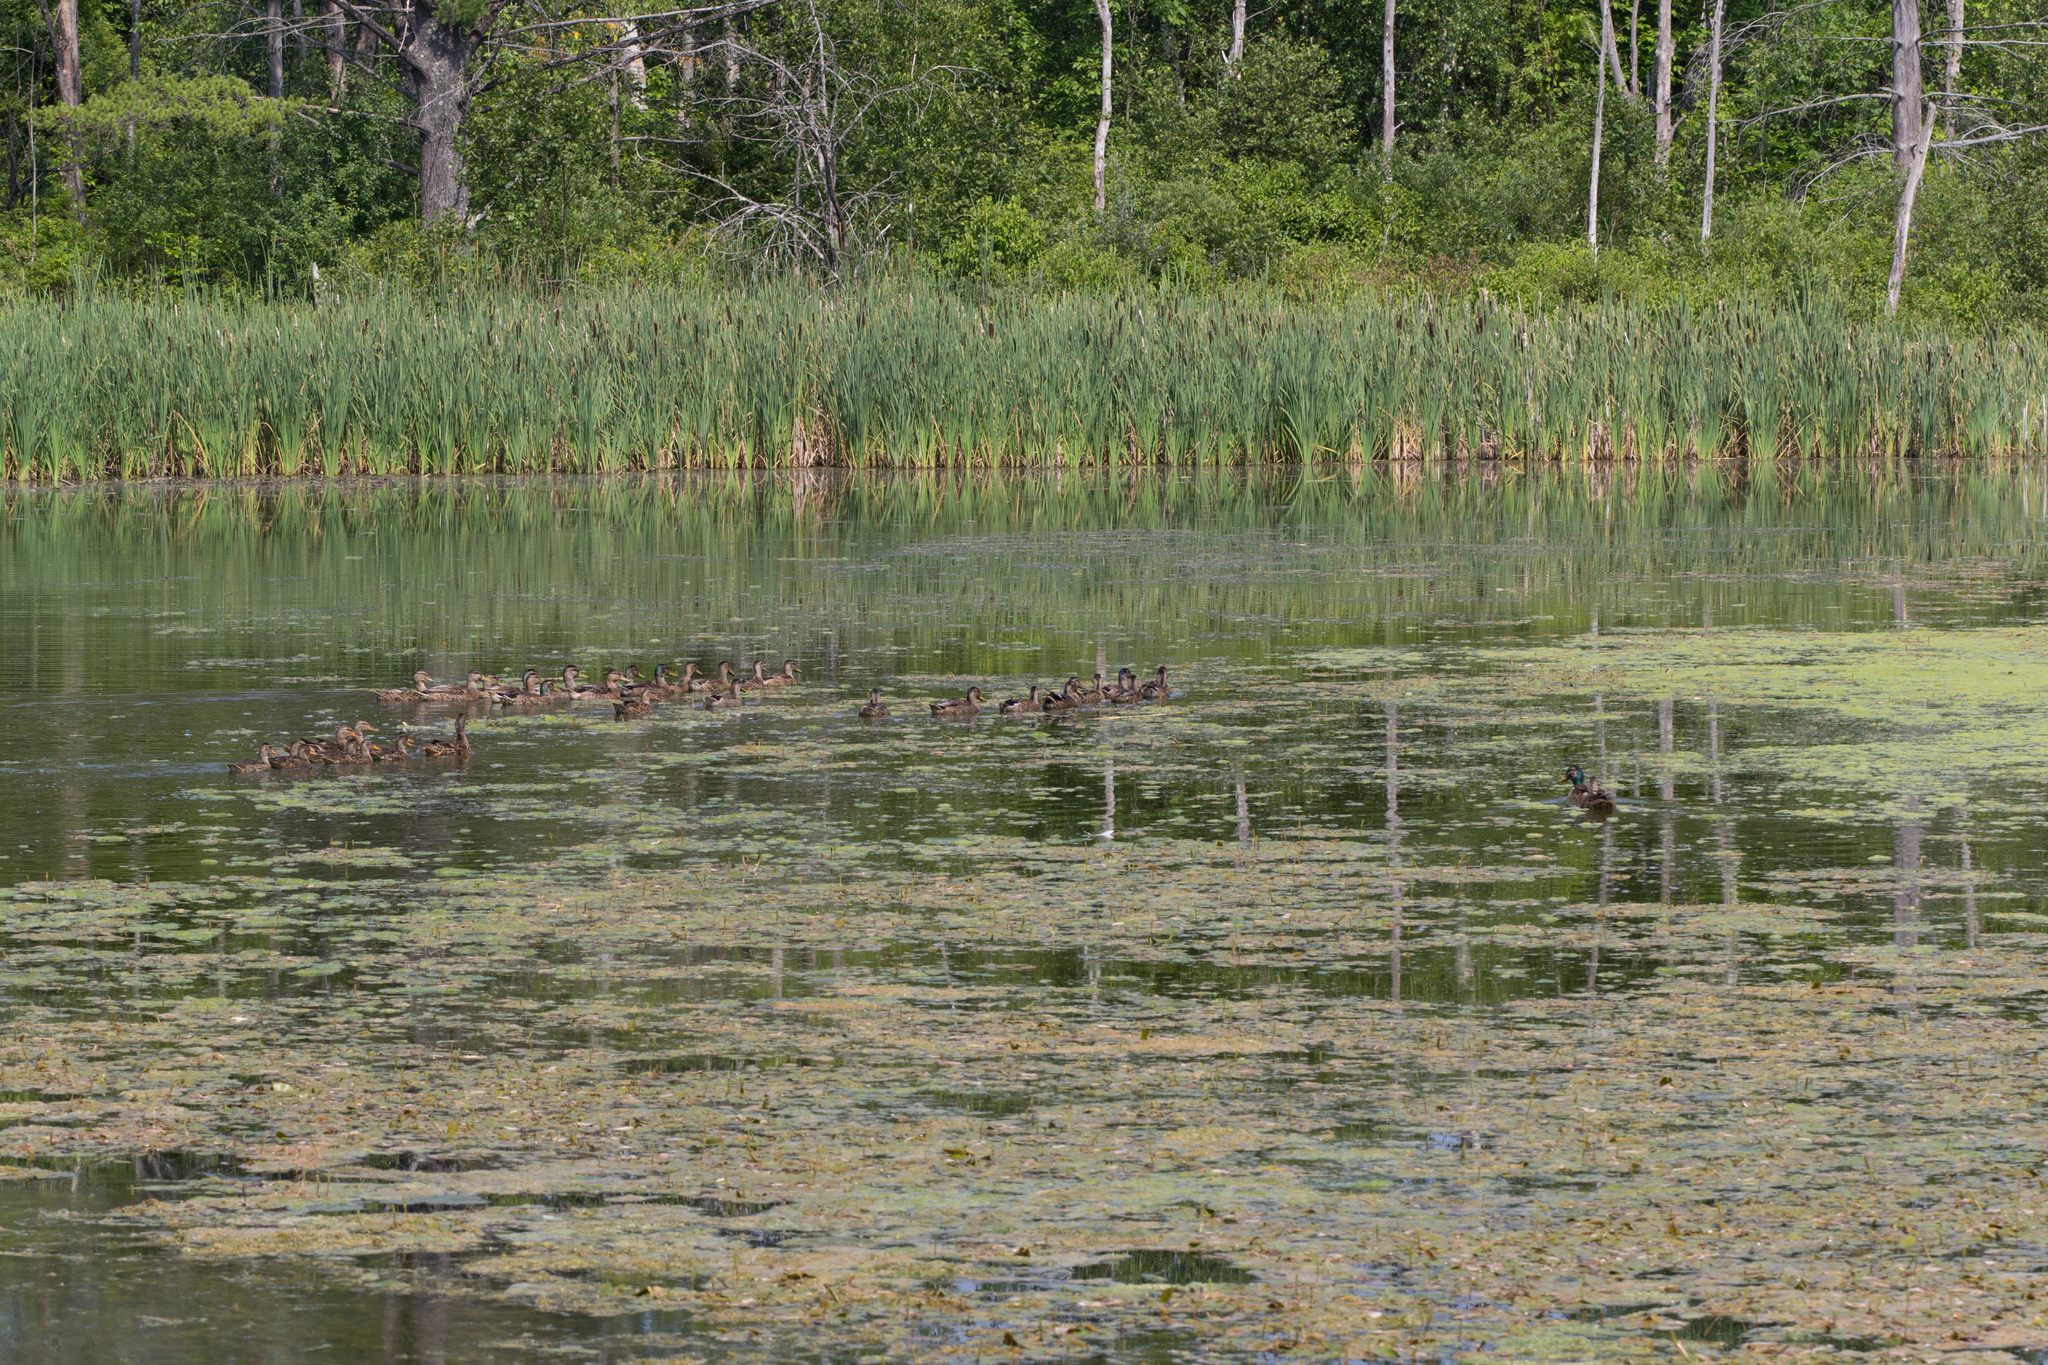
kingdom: Animalia
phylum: Chordata
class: Aves
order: Anseriformes
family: Anatidae
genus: Anas
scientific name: Anas platyrhynchos
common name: Mallard
